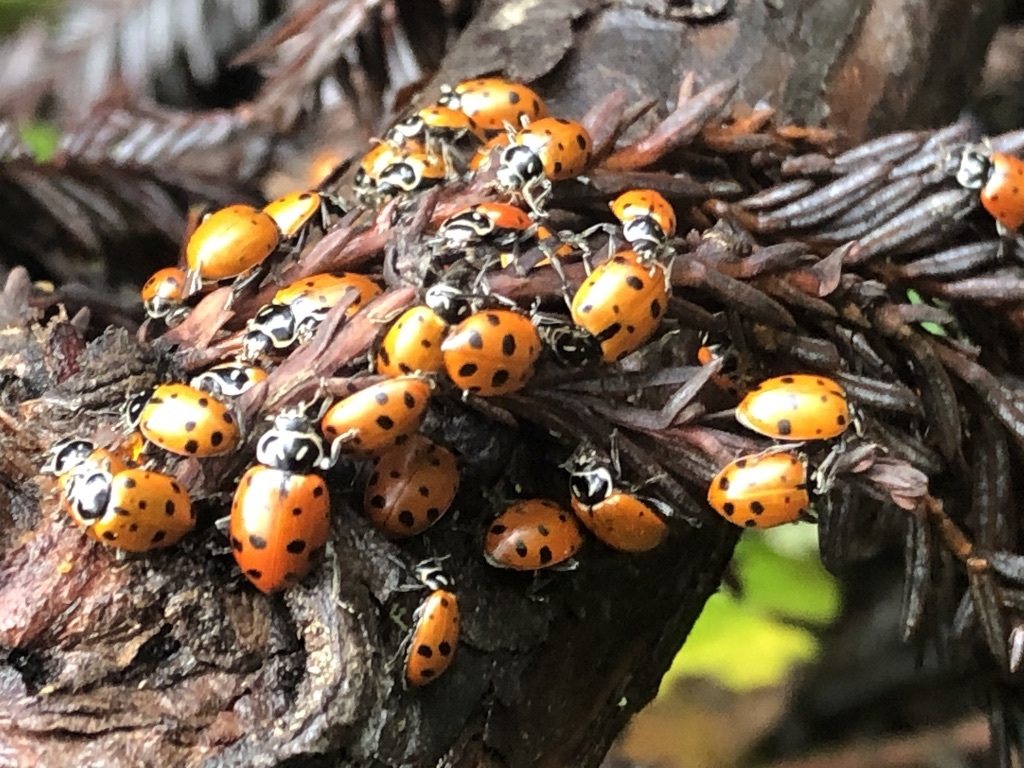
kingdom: Animalia
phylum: Arthropoda
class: Insecta
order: Coleoptera
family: Coccinellidae
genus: Hippodamia
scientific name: Hippodamia convergens
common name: Convergent lady beetle
